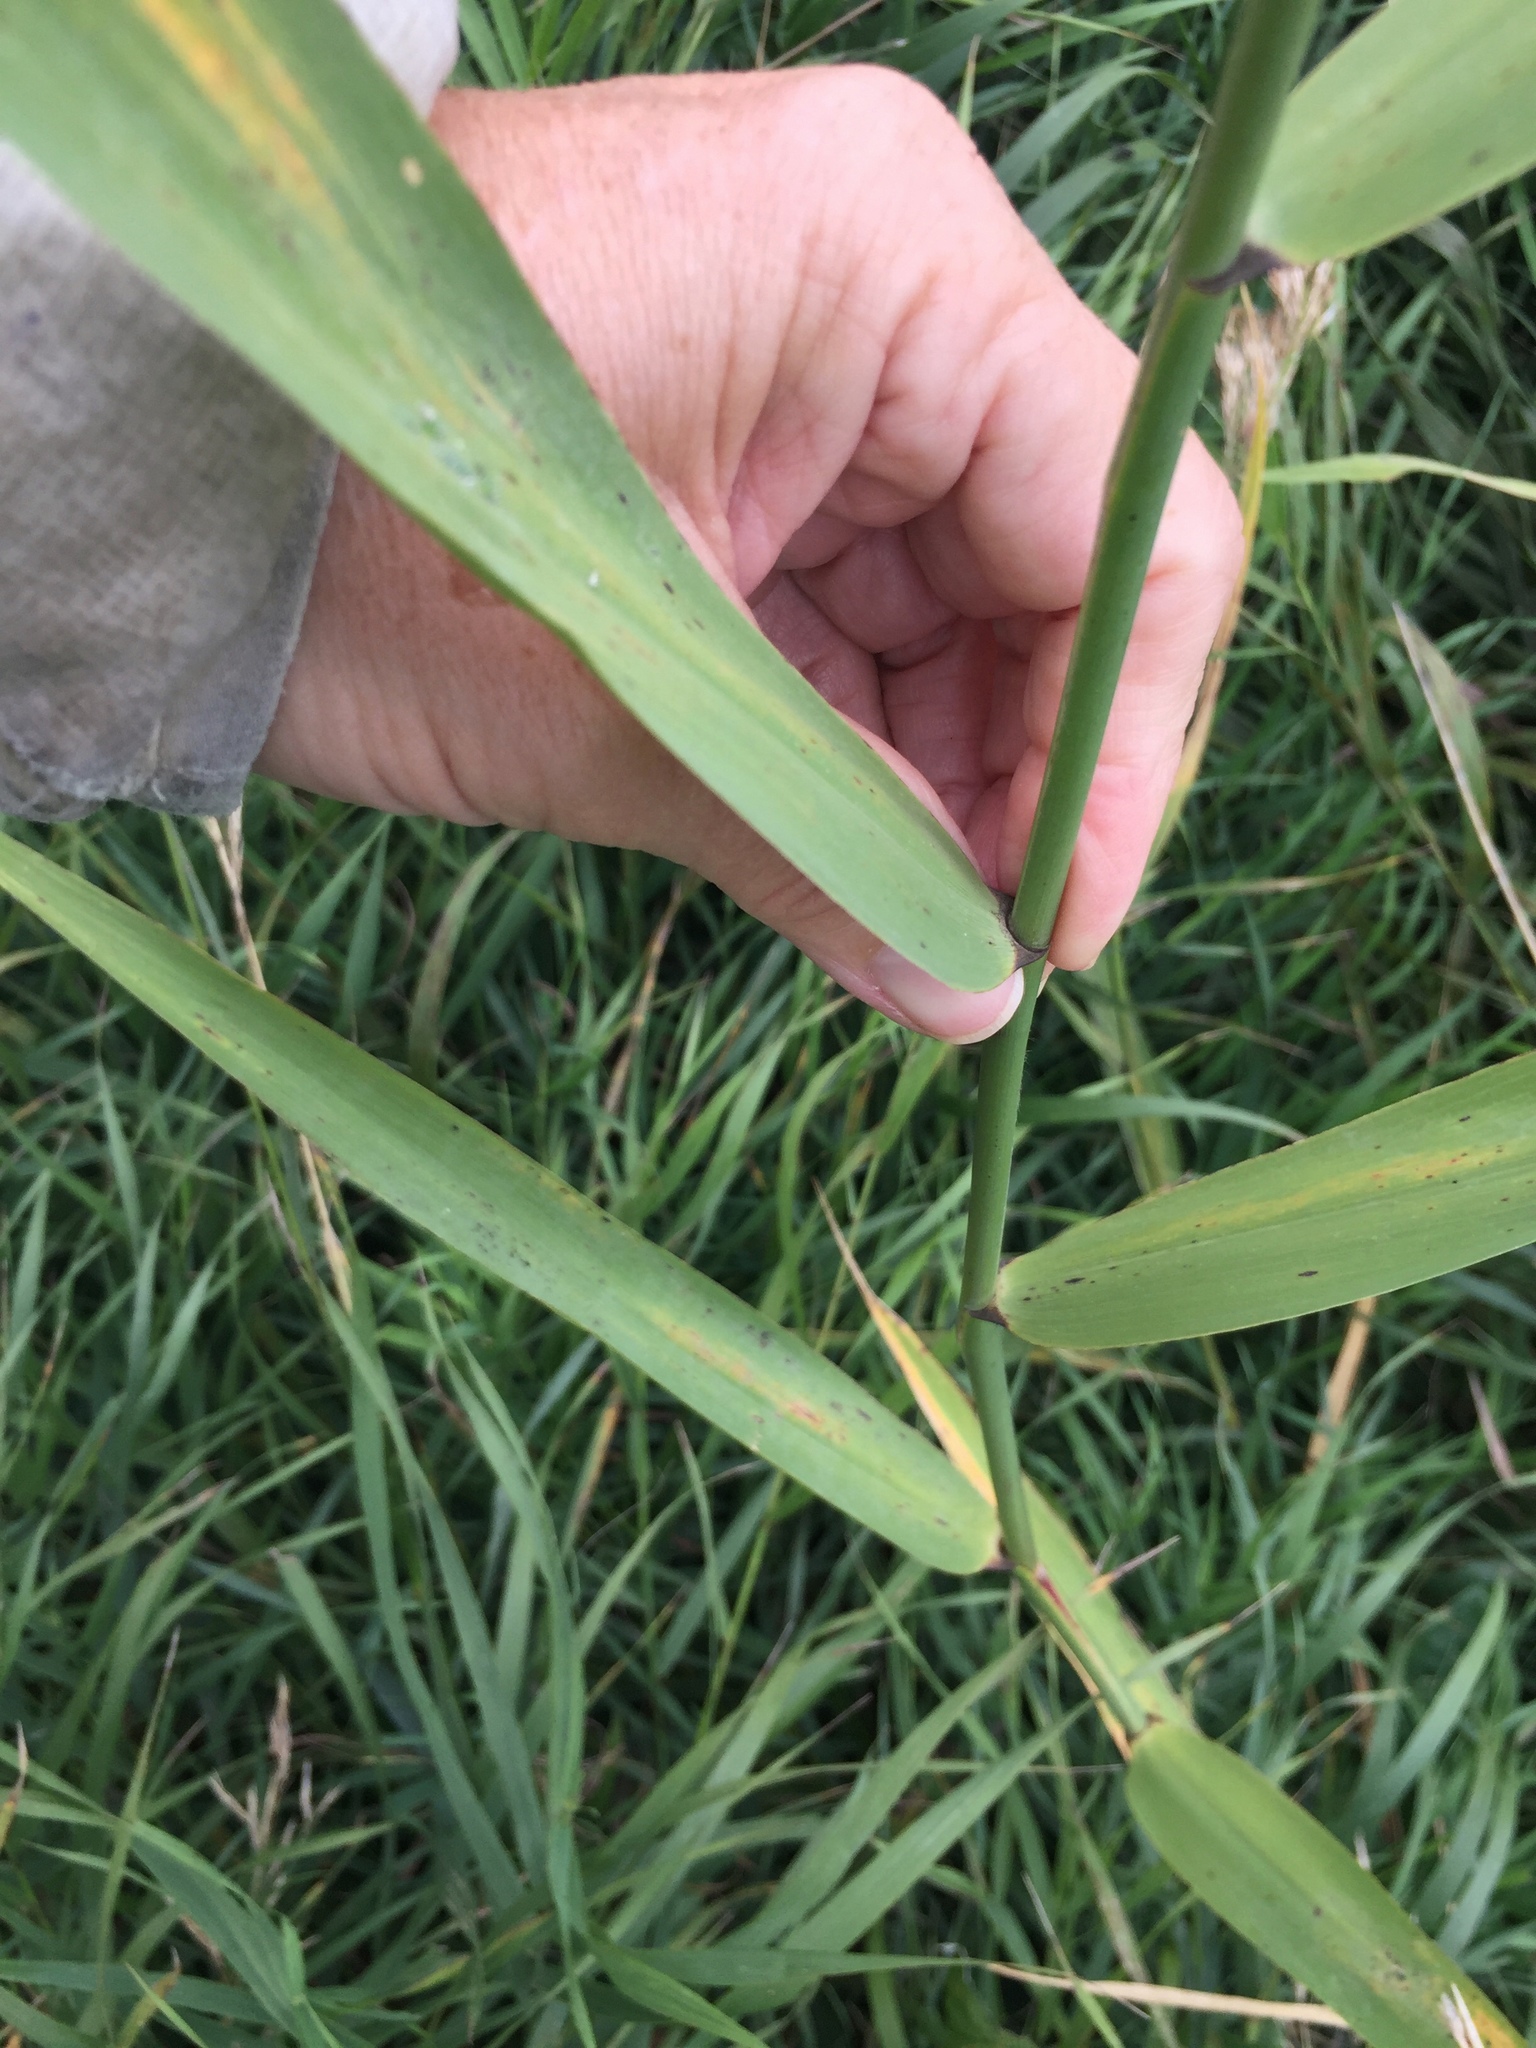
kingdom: Plantae
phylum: Tracheophyta
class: Liliopsida
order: Poales
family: Poaceae
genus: Phragmites
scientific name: Phragmites australis
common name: Common reed
